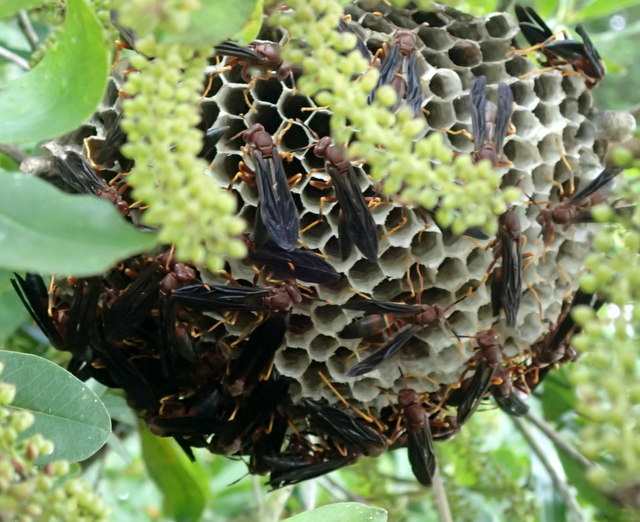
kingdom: Animalia
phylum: Arthropoda
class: Insecta
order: Hymenoptera
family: Eumenidae
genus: Polistes
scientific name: Polistes annularis
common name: Ringed paper wasp
